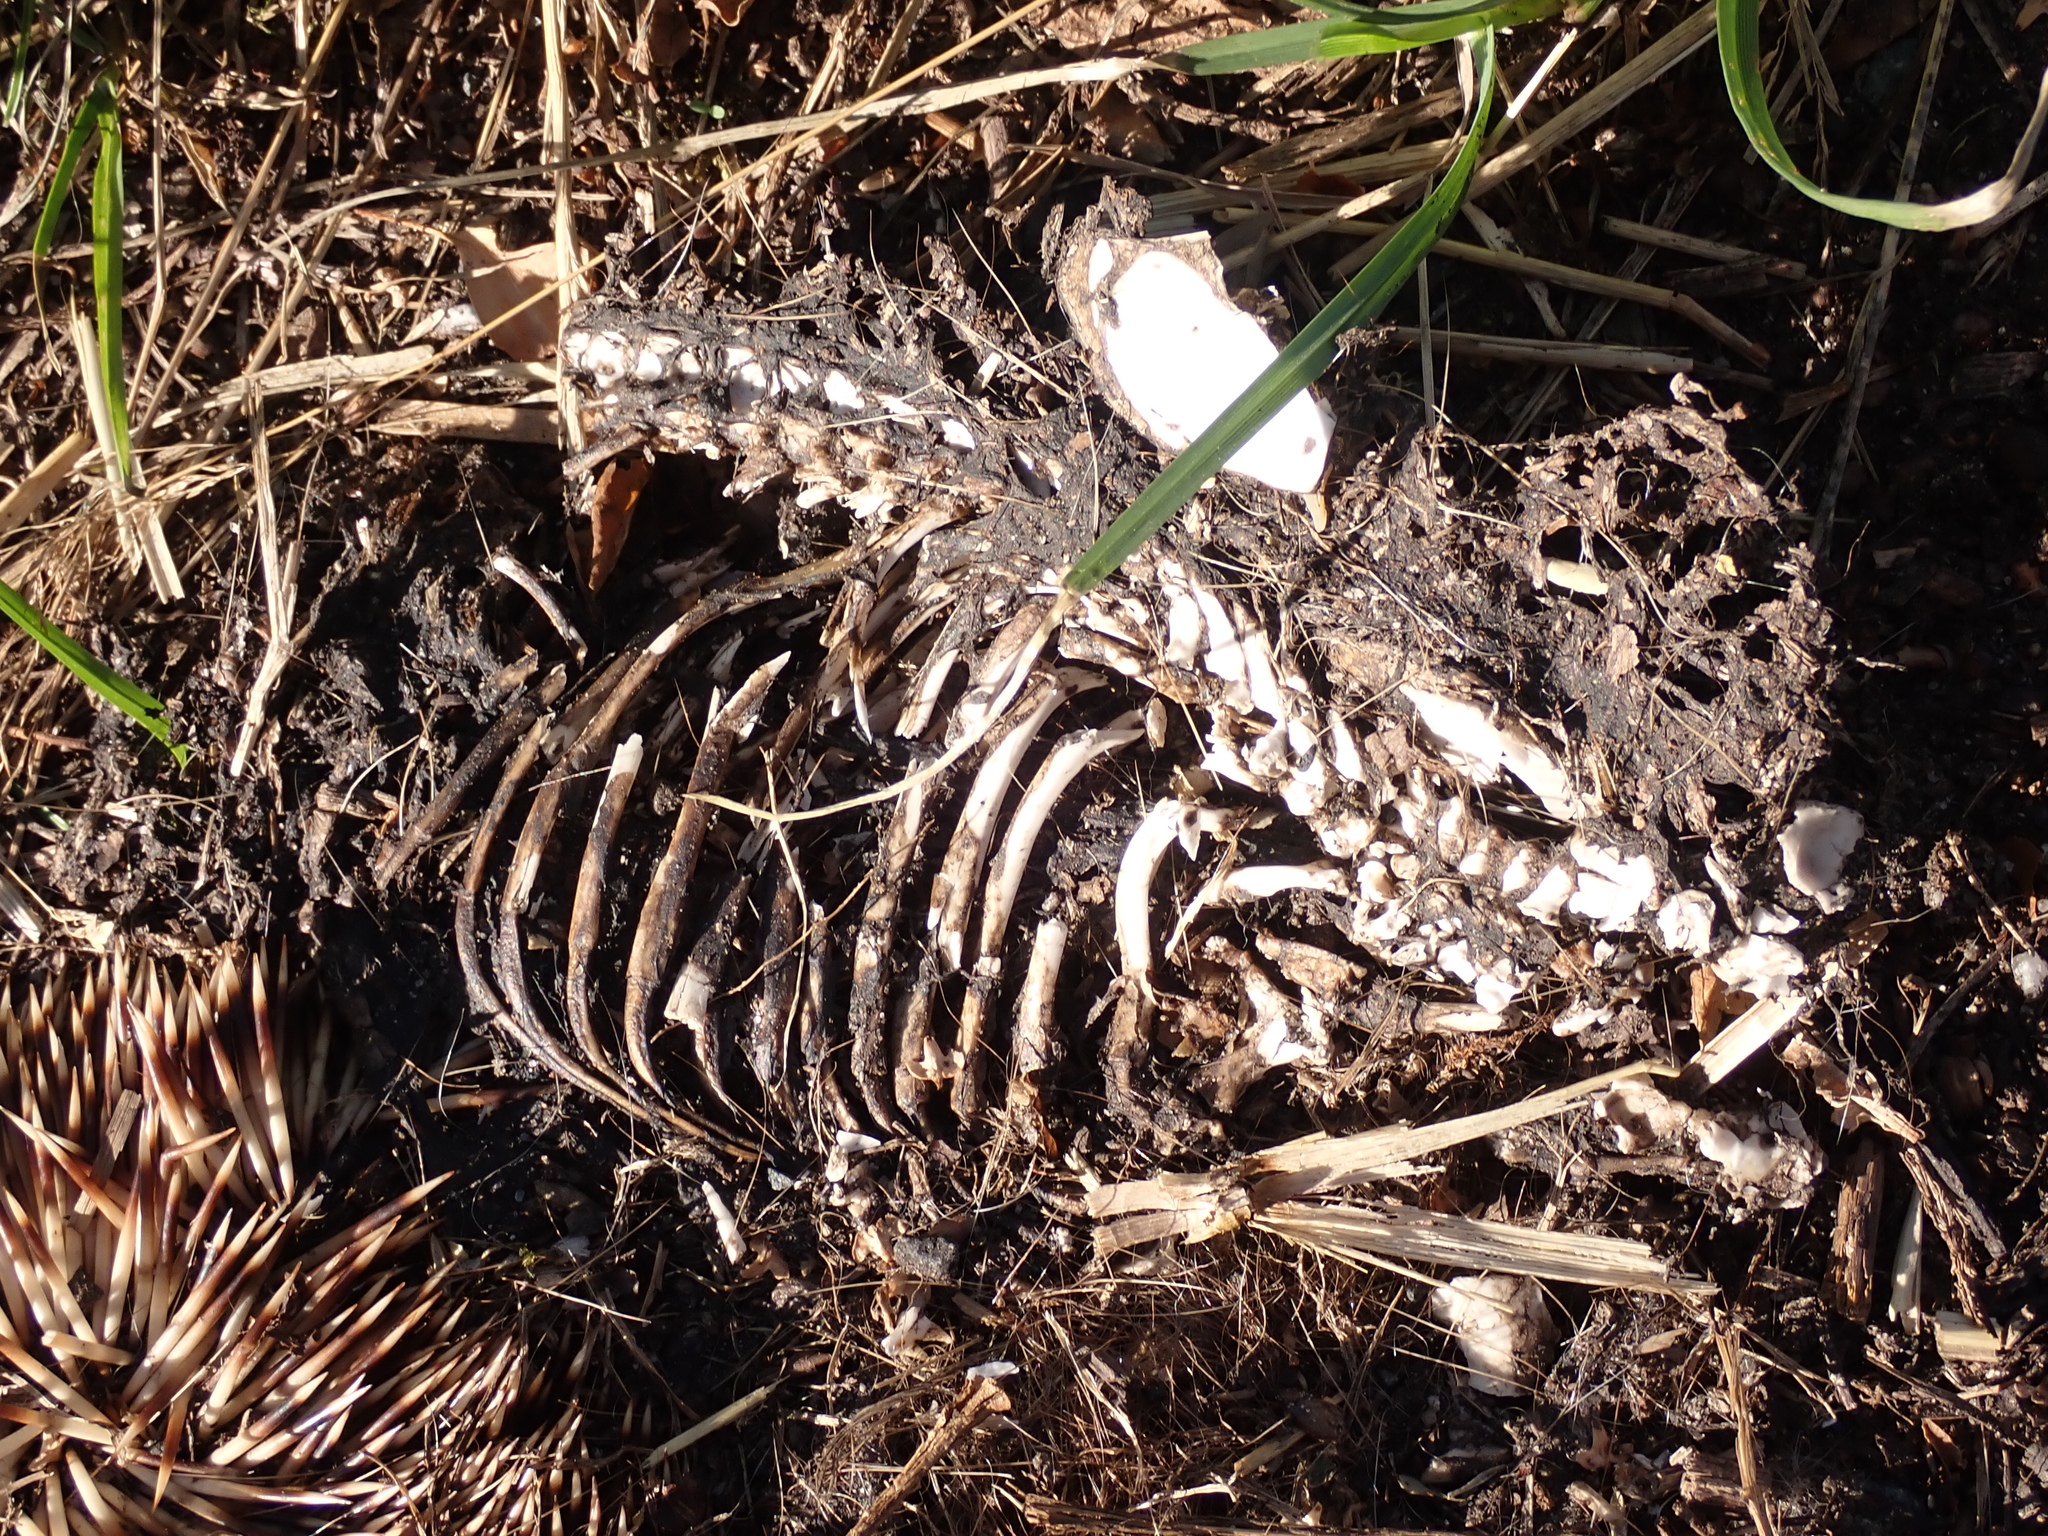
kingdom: Animalia
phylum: Chordata
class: Mammalia
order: Erinaceomorpha
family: Erinaceidae
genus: Erinaceus
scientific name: Erinaceus europaeus
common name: West european hedgehog
